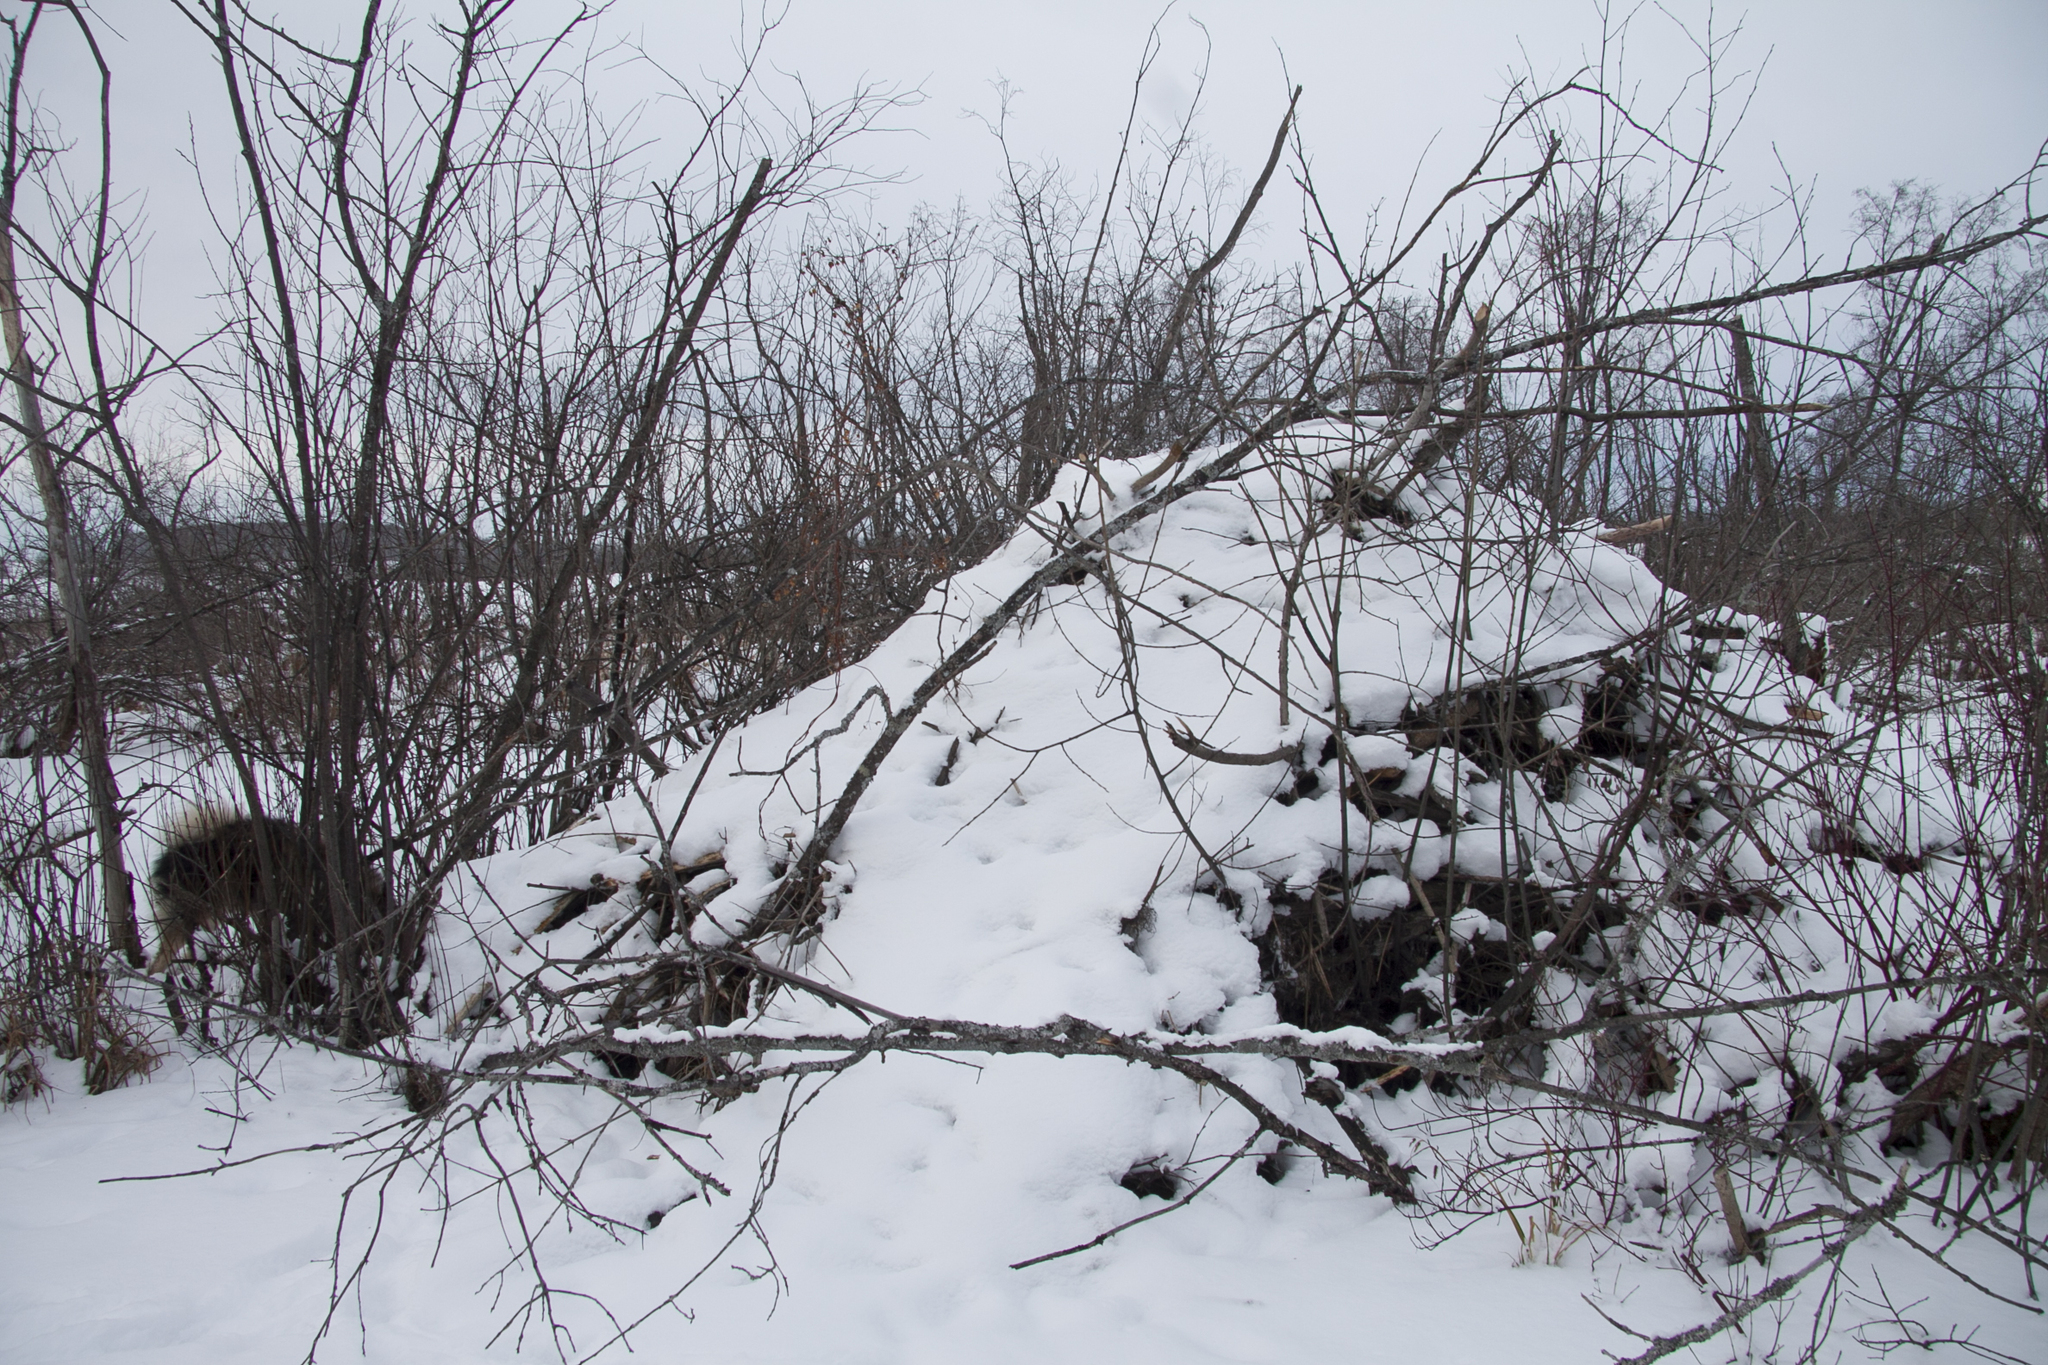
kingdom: Animalia
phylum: Chordata
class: Mammalia
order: Rodentia
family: Castoridae
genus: Castor
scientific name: Castor fiber
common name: Eurasian beaver
